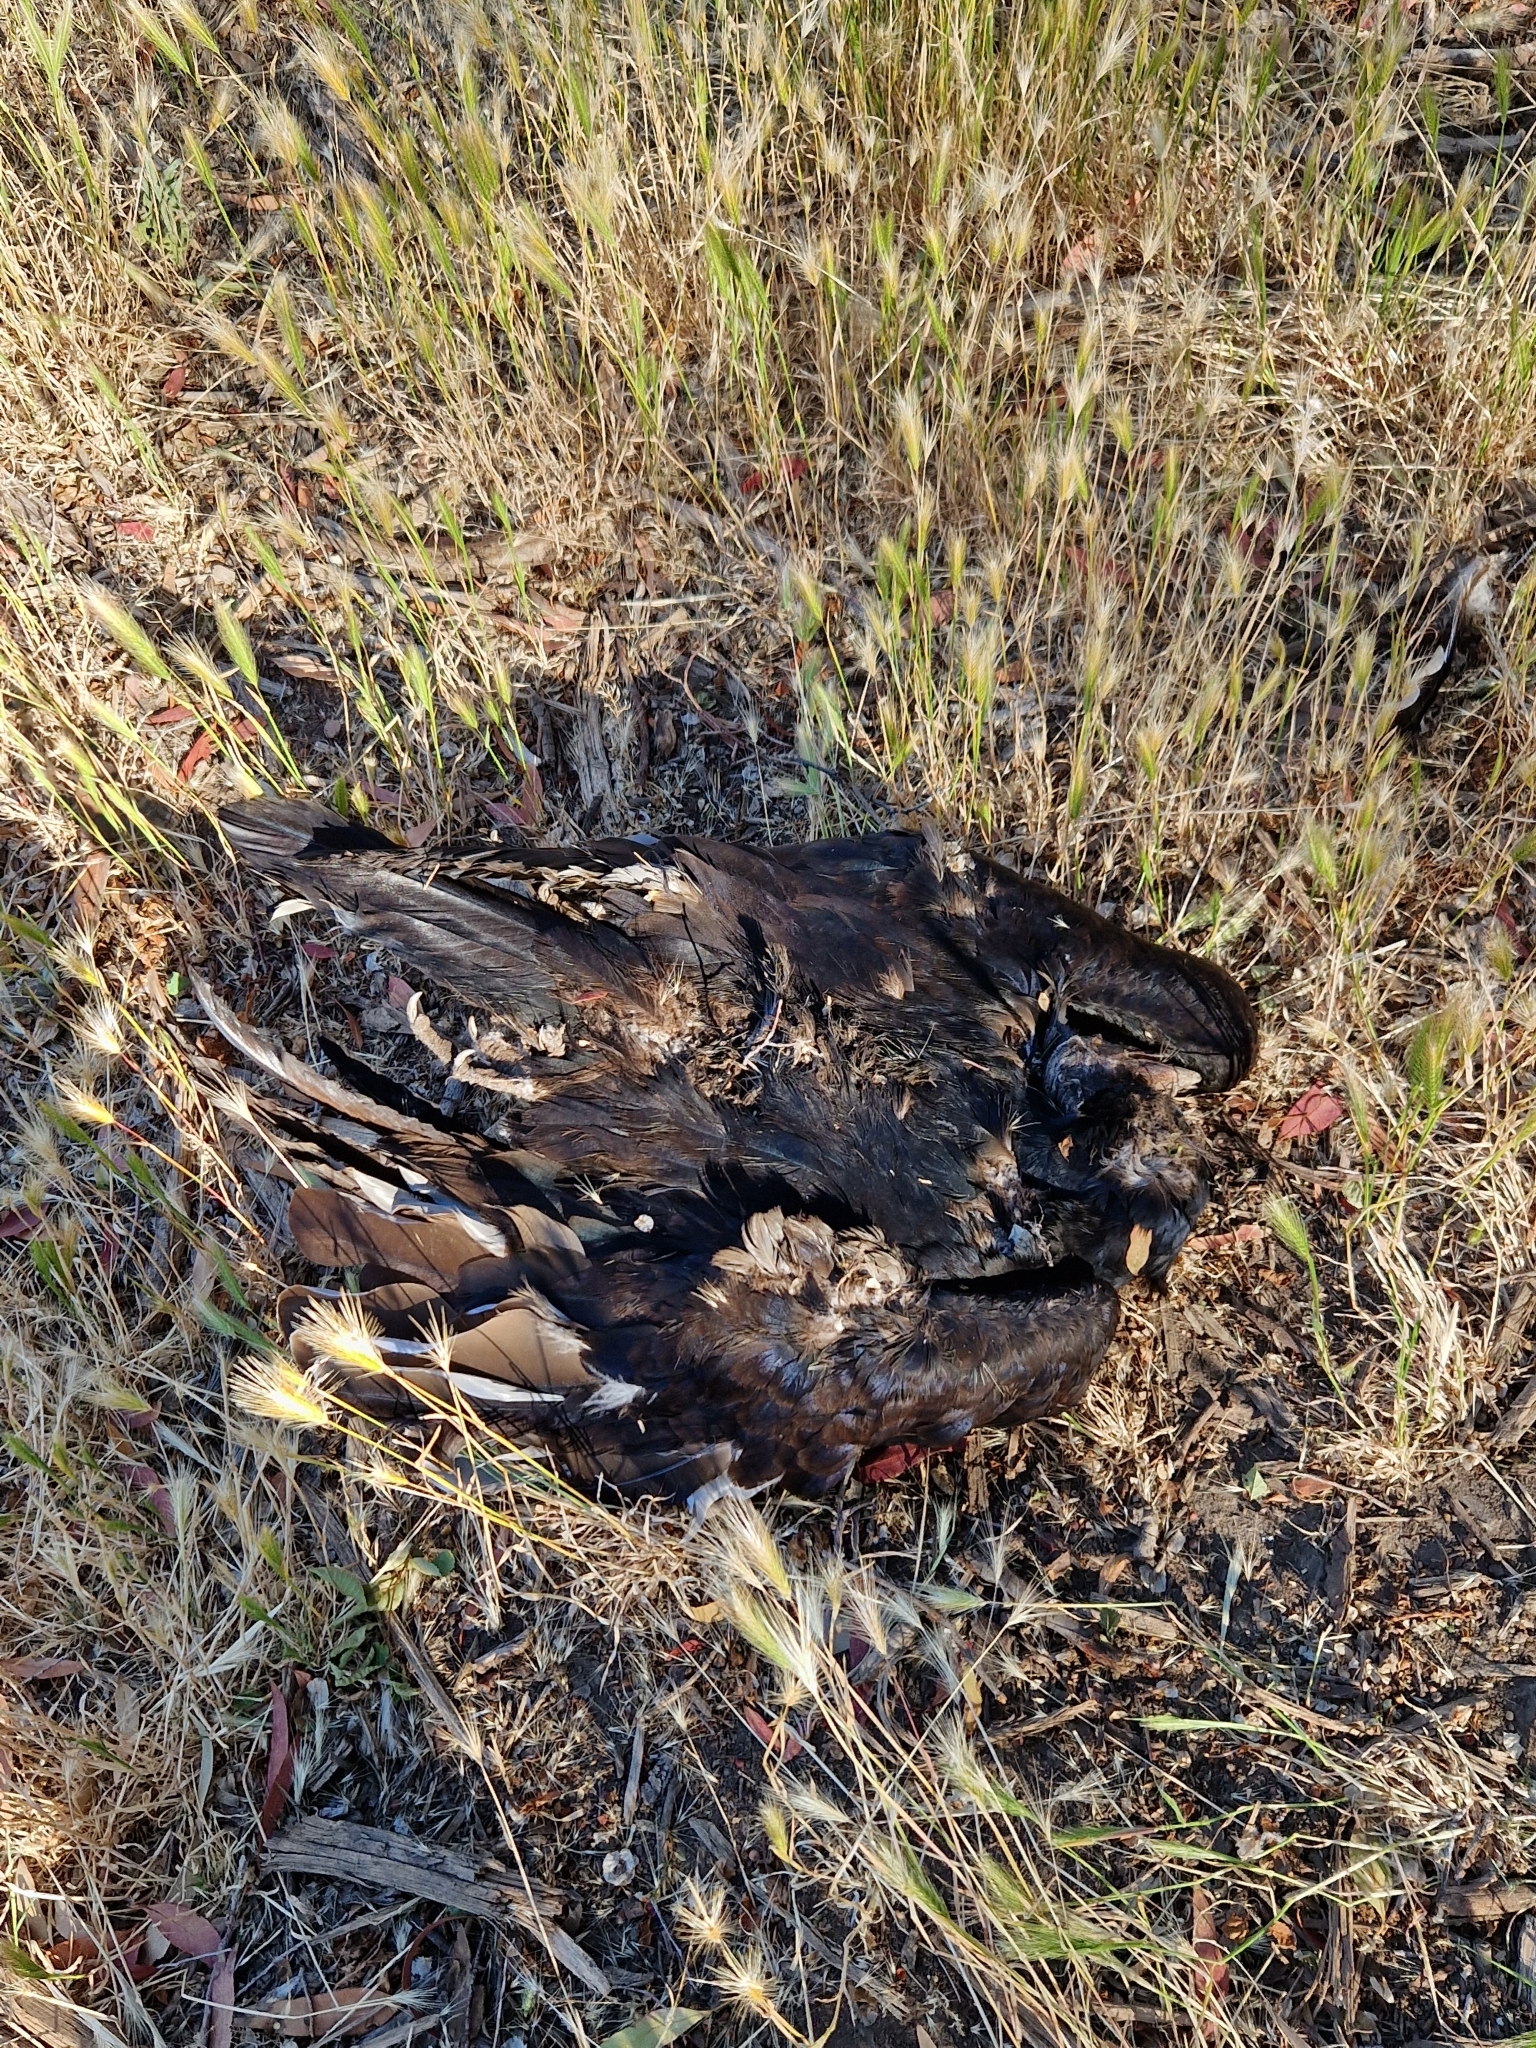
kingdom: Animalia
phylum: Chordata
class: Aves
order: Accipitriformes
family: Cathartidae
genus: Cathartes
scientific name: Cathartes aura
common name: Turkey vulture
